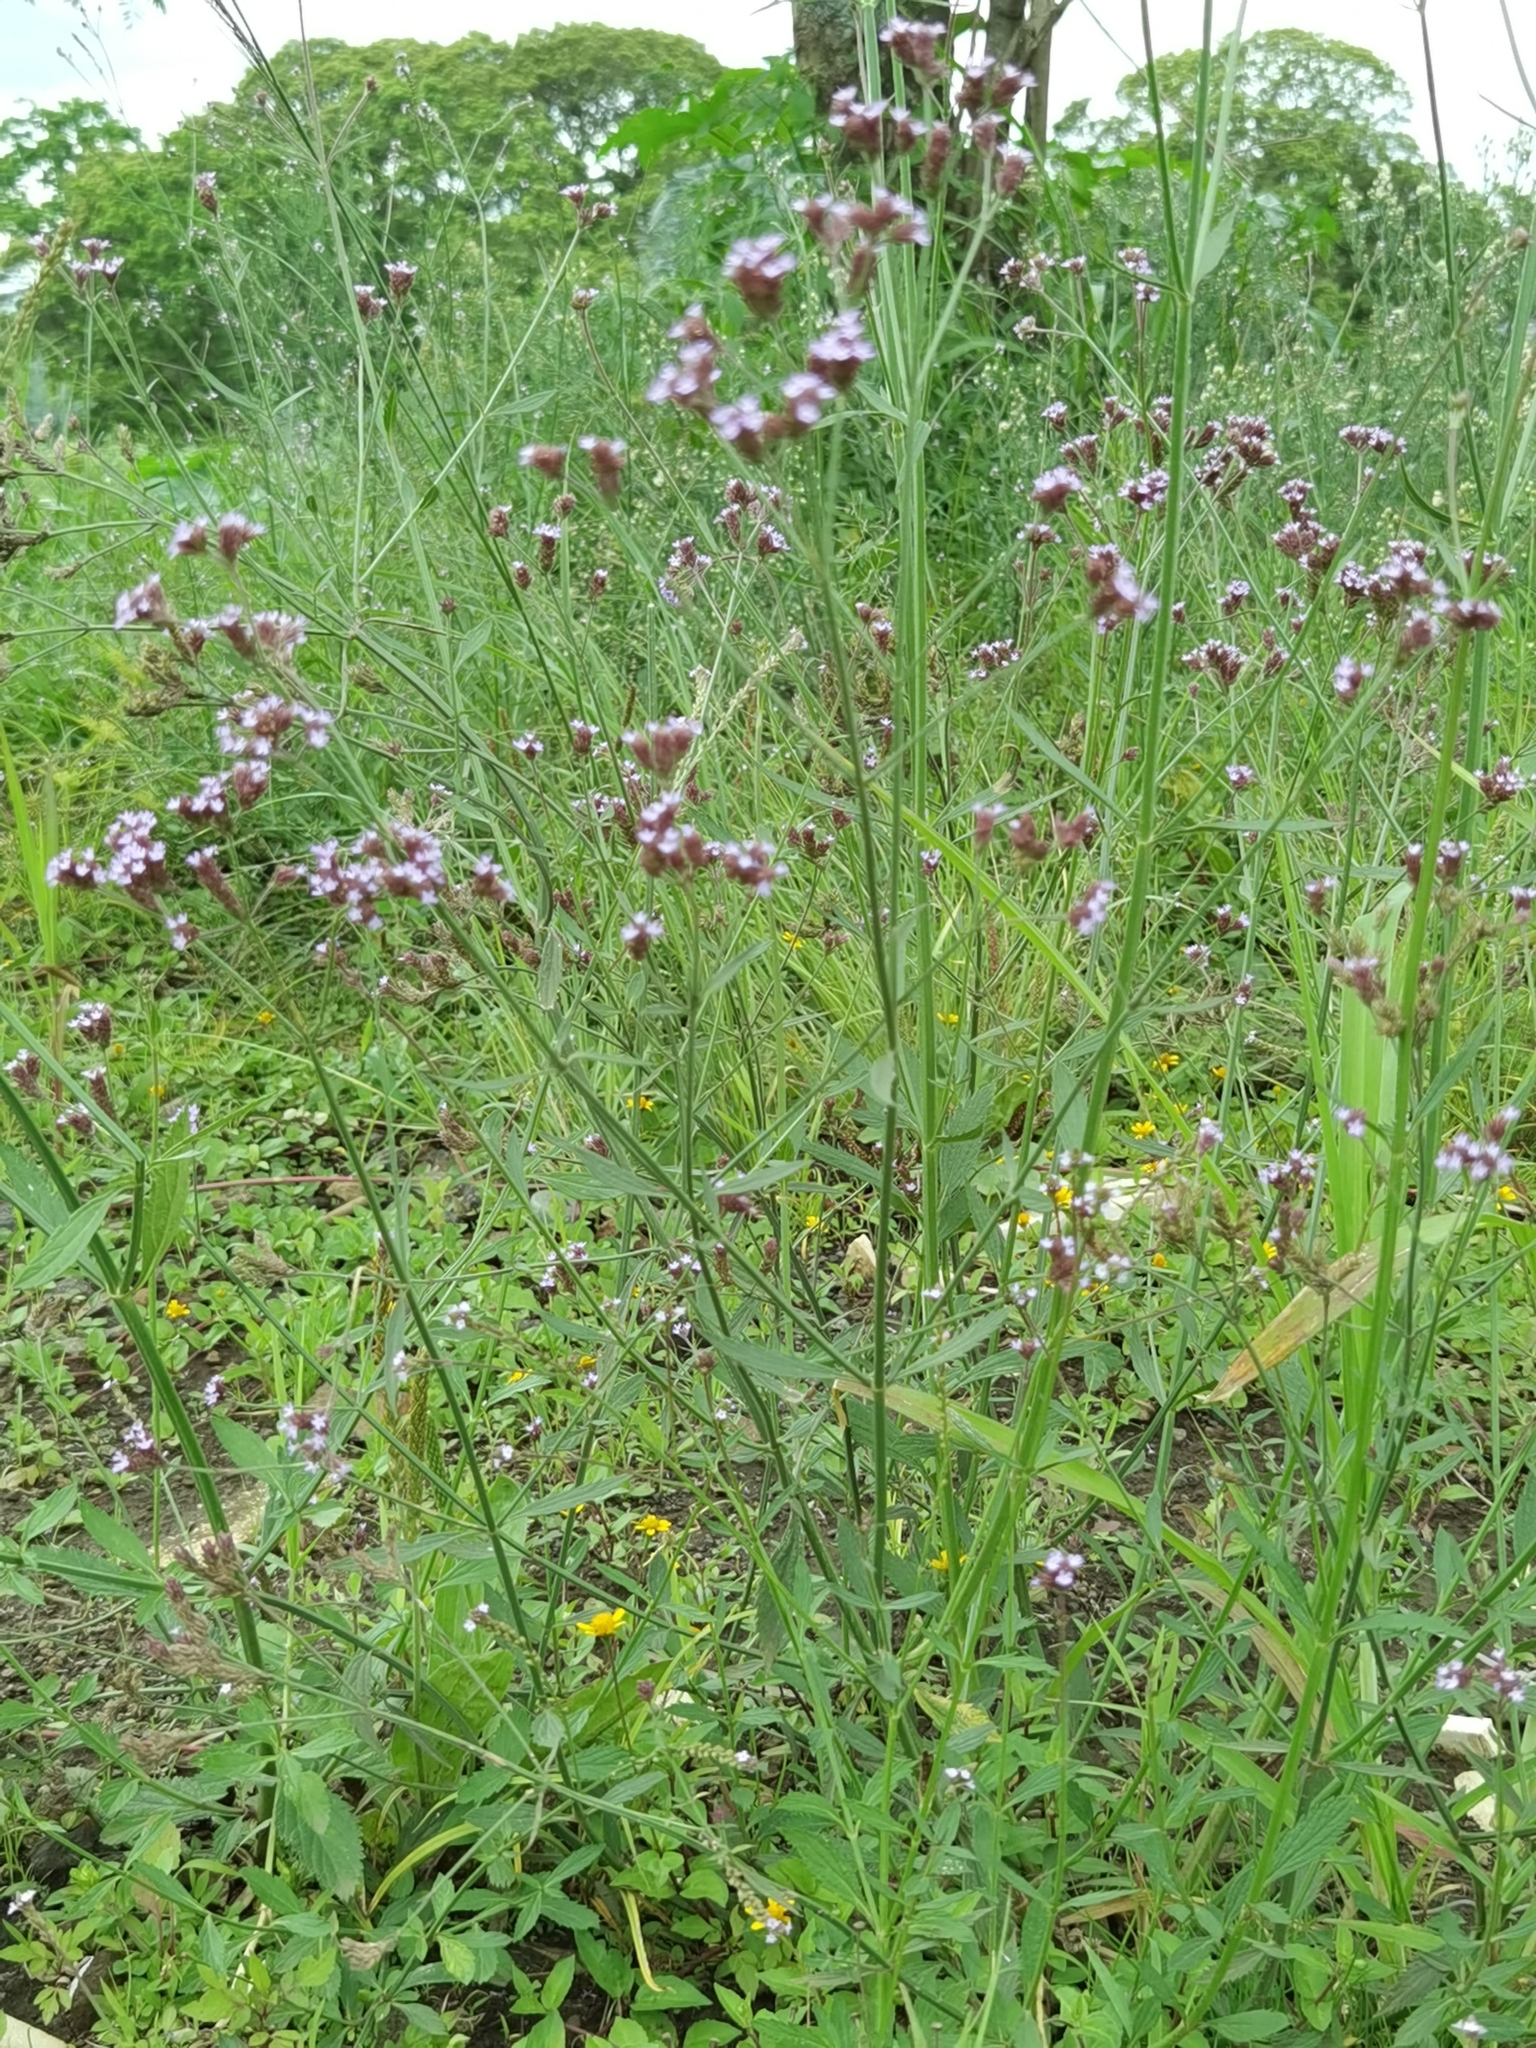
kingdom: Plantae
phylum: Tracheophyta
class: Magnoliopsida
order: Lamiales
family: Verbenaceae
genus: Verbena
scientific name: Verbena litoralis
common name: Seashore vervain
